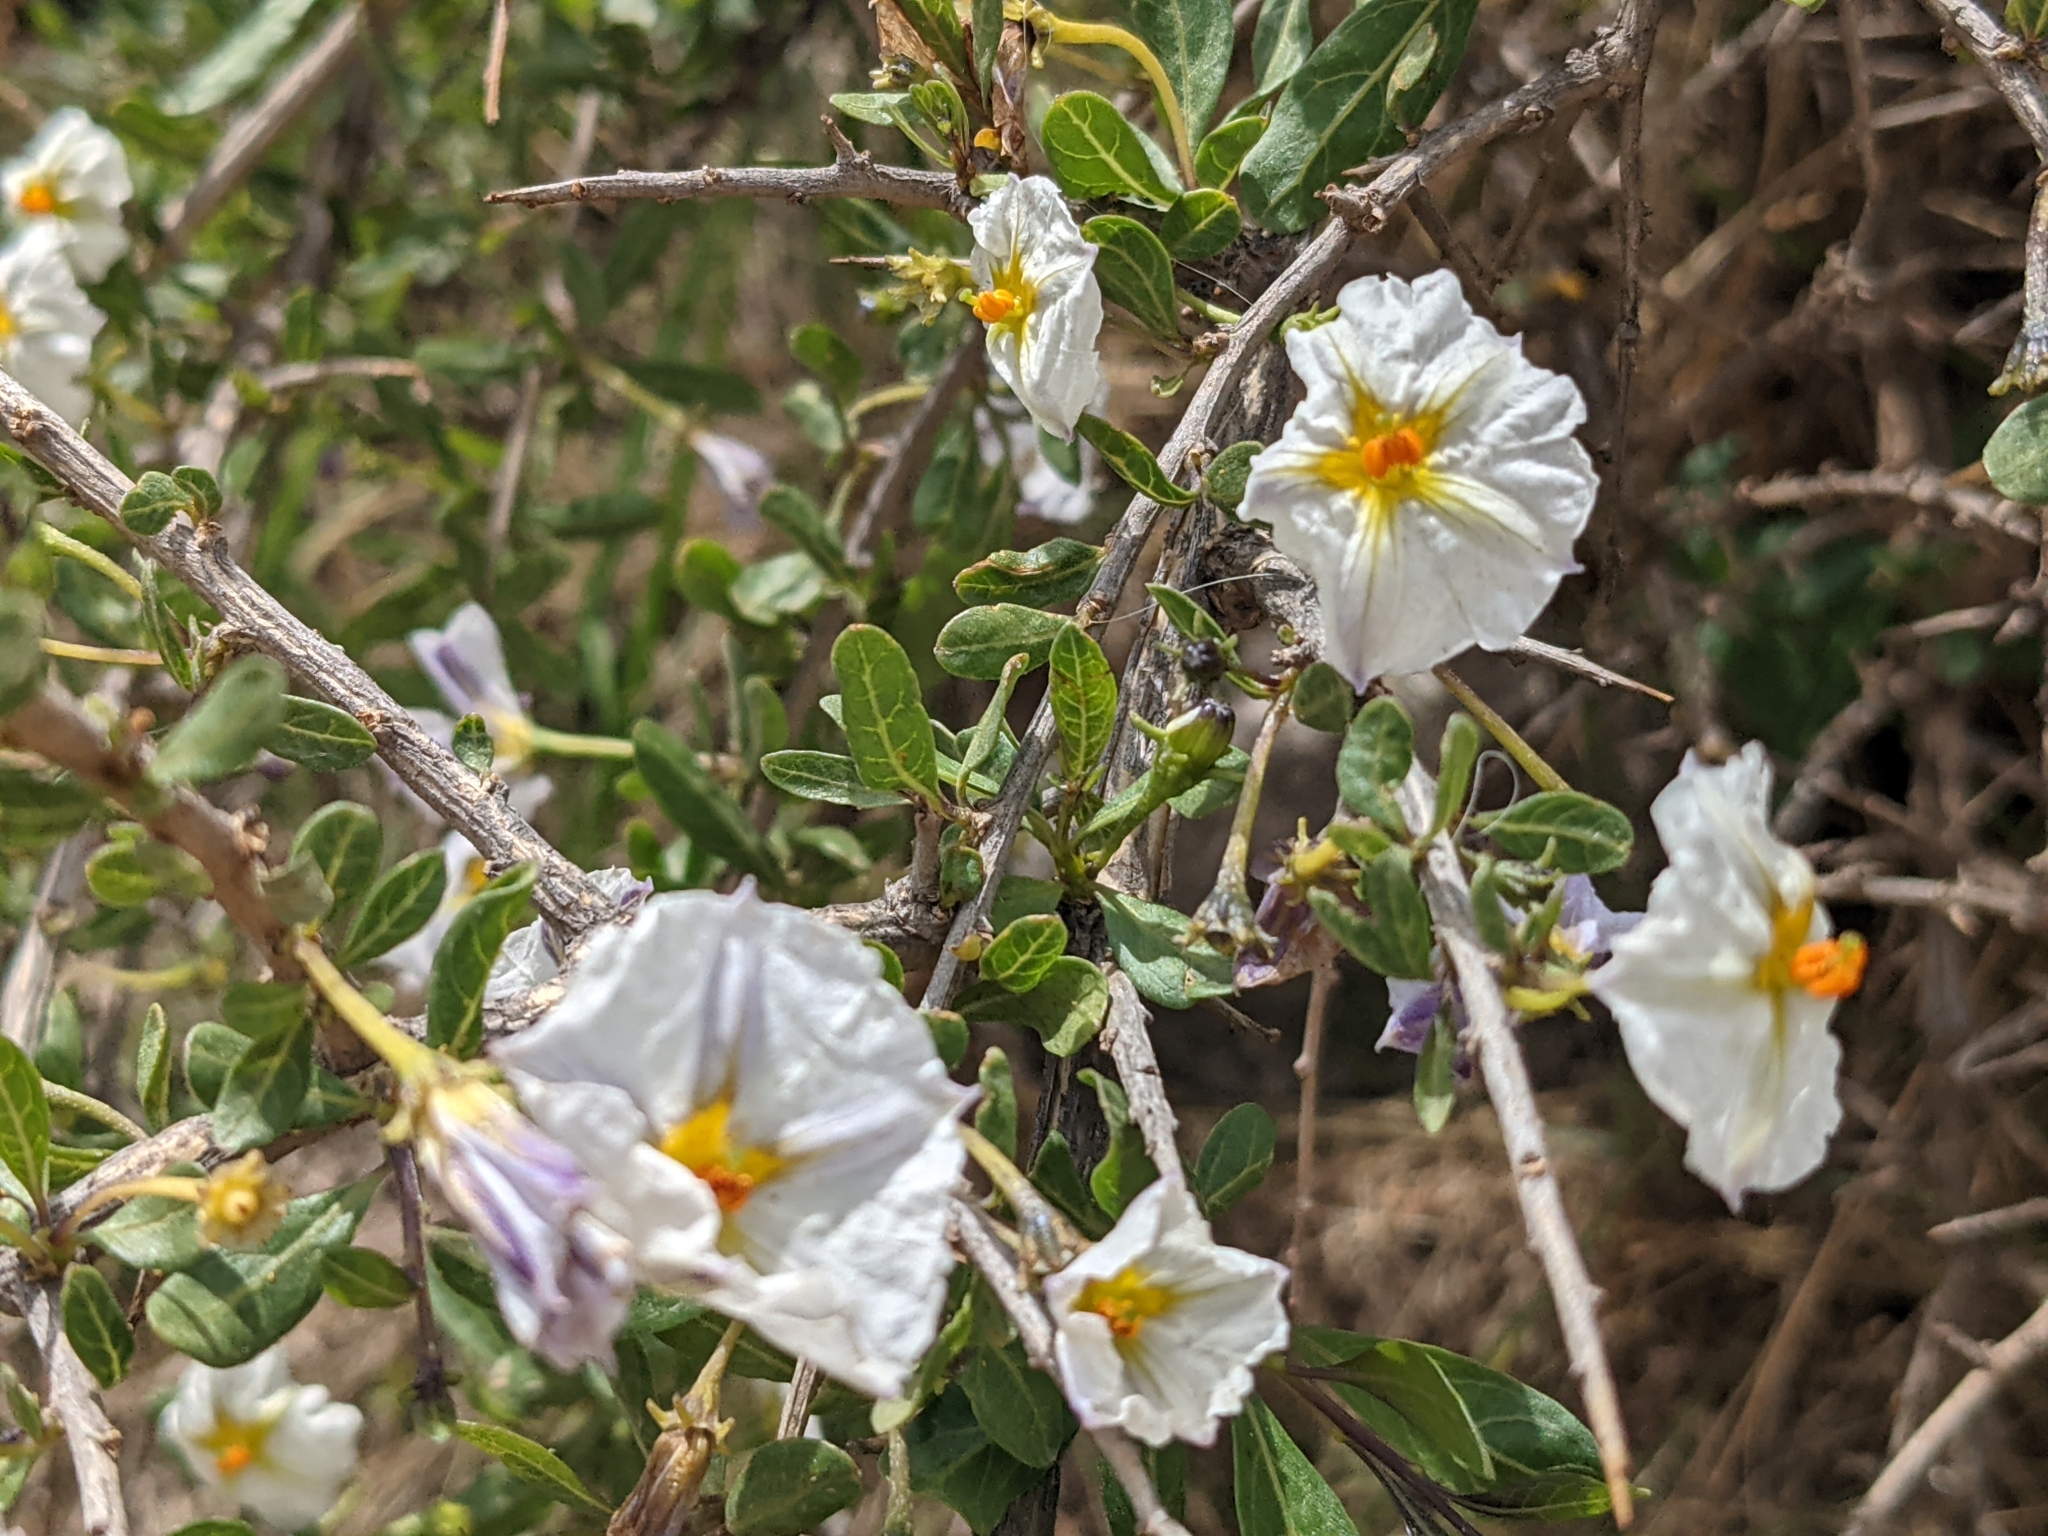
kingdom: Plantae
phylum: Tracheophyta
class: Magnoliopsida
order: Solanales
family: Solanaceae
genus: Lycianthes
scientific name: Lycianthes lycioides
